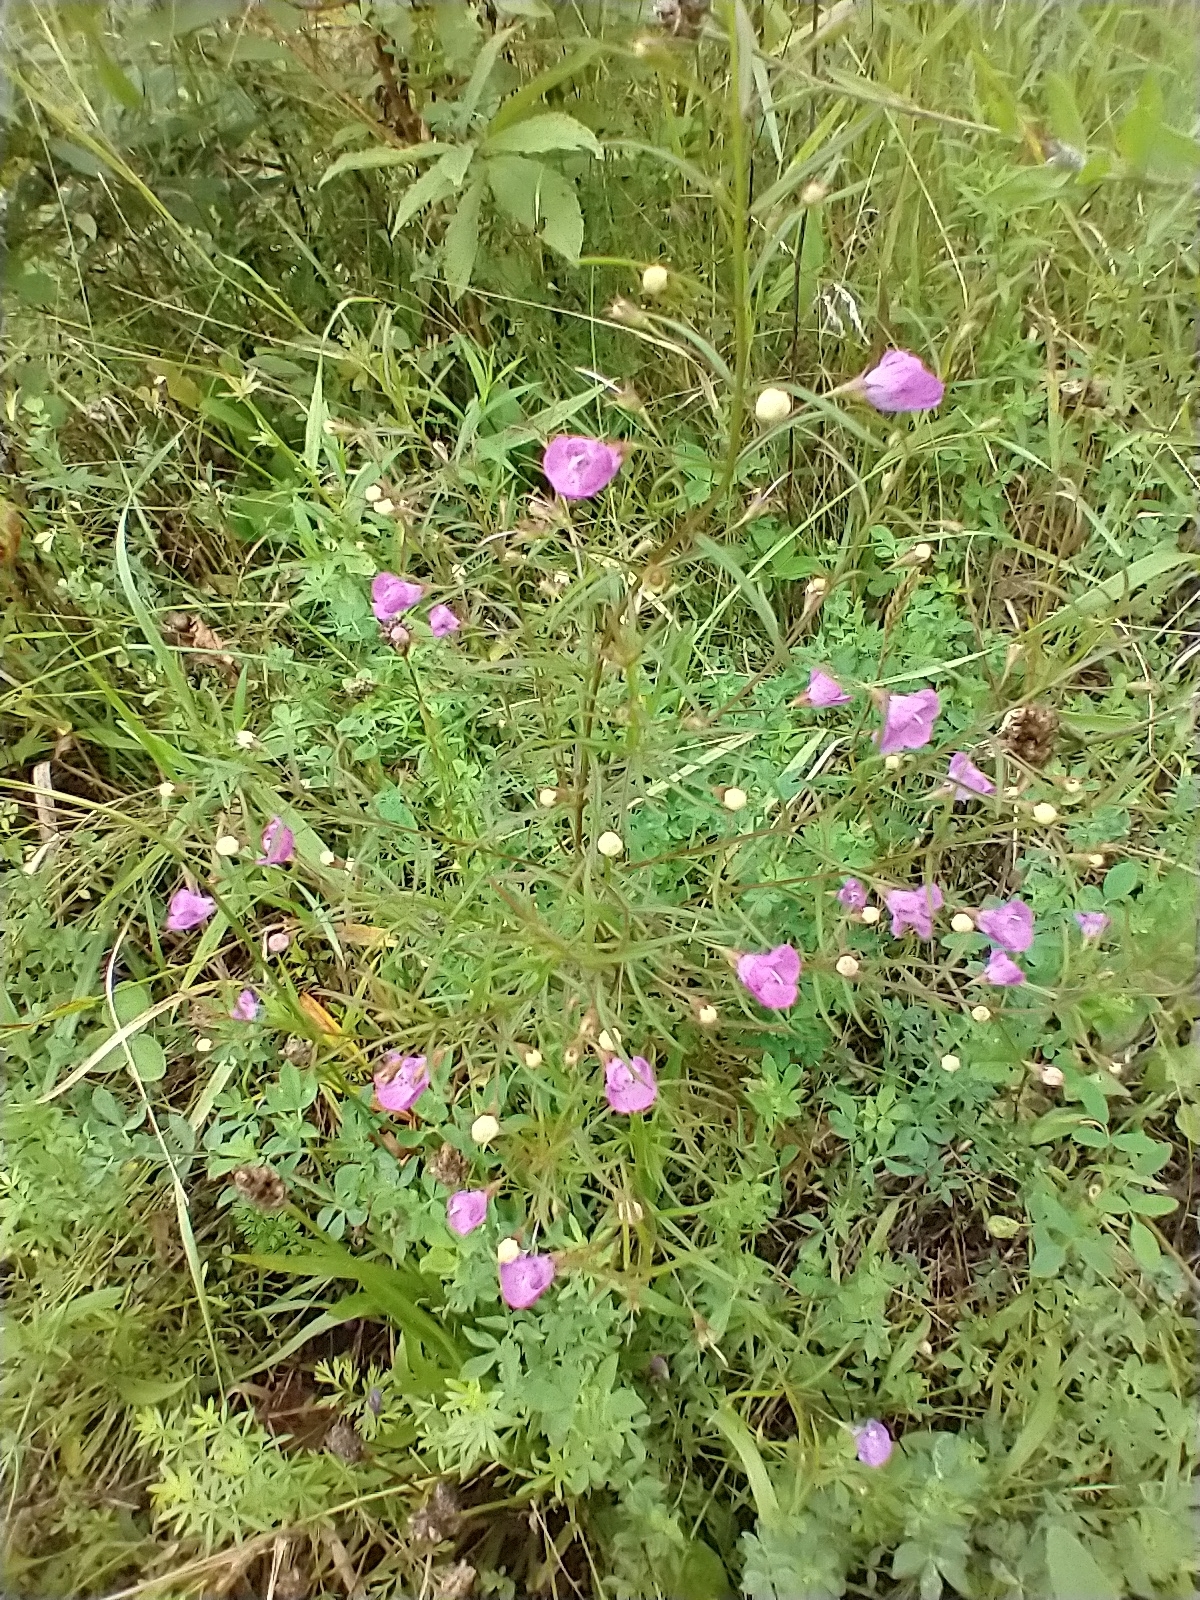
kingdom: Plantae
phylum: Tracheophyta
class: Magnoliopsida
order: Lamiales
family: Orobanchaceae
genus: Agalinis
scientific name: Agalinis tenuifolia
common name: Slender agalinis
